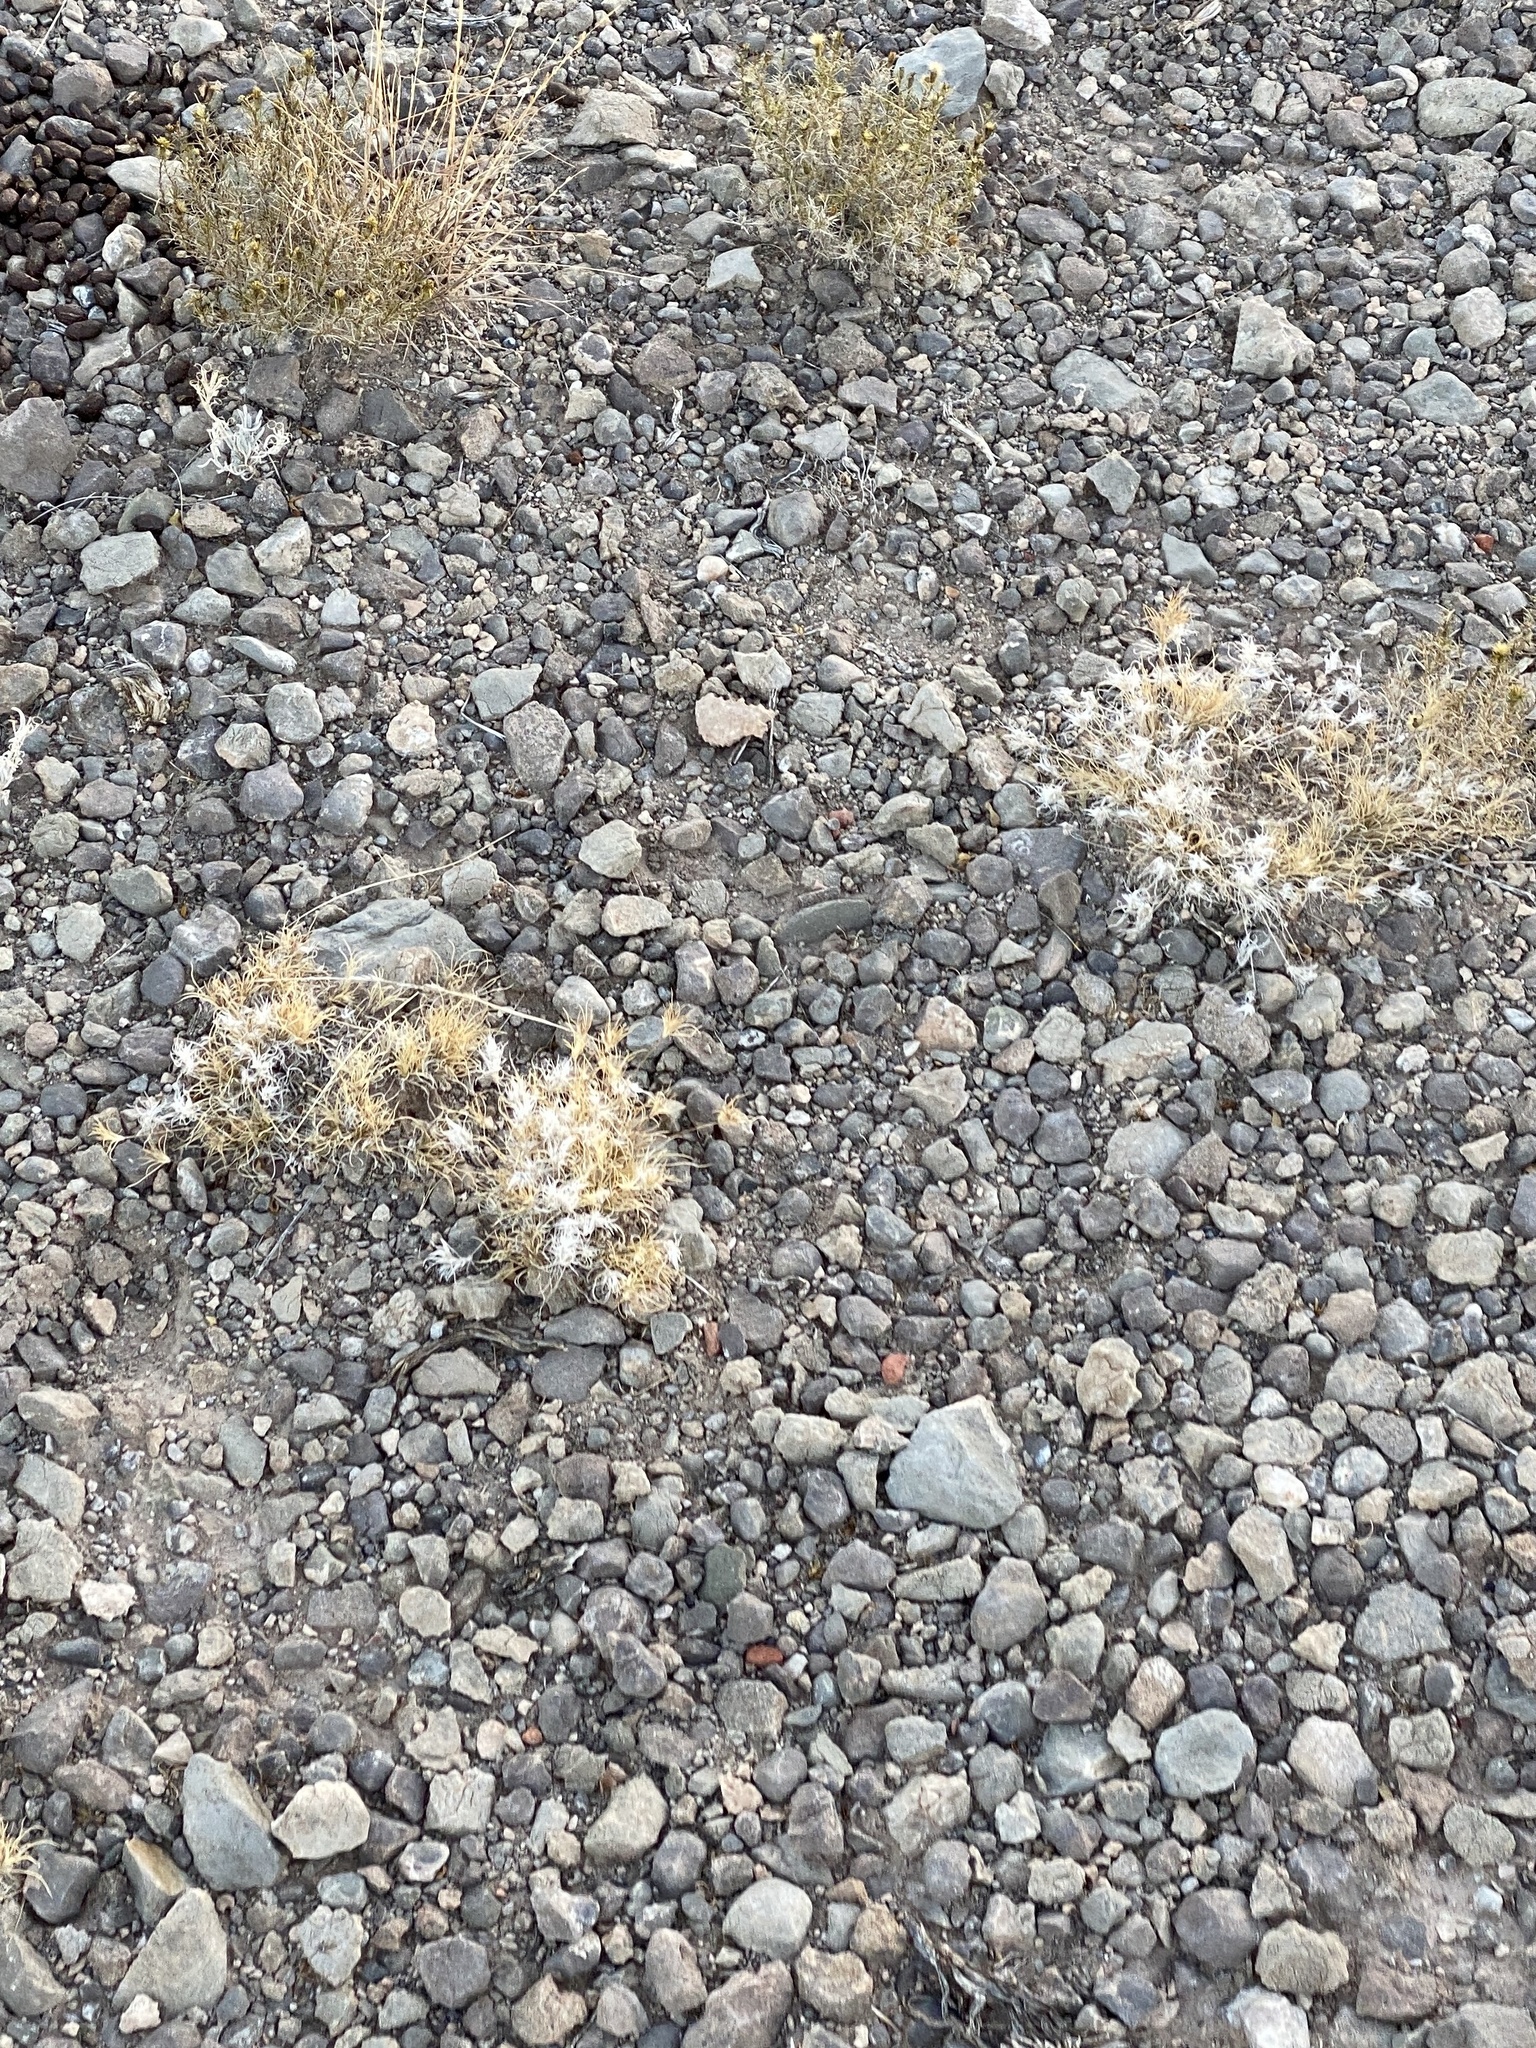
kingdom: Plantae
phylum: Tracheophyta
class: Liliopsida
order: Poales
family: Poaceae
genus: Dasyochloa
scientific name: Dasyochloa pulchella
